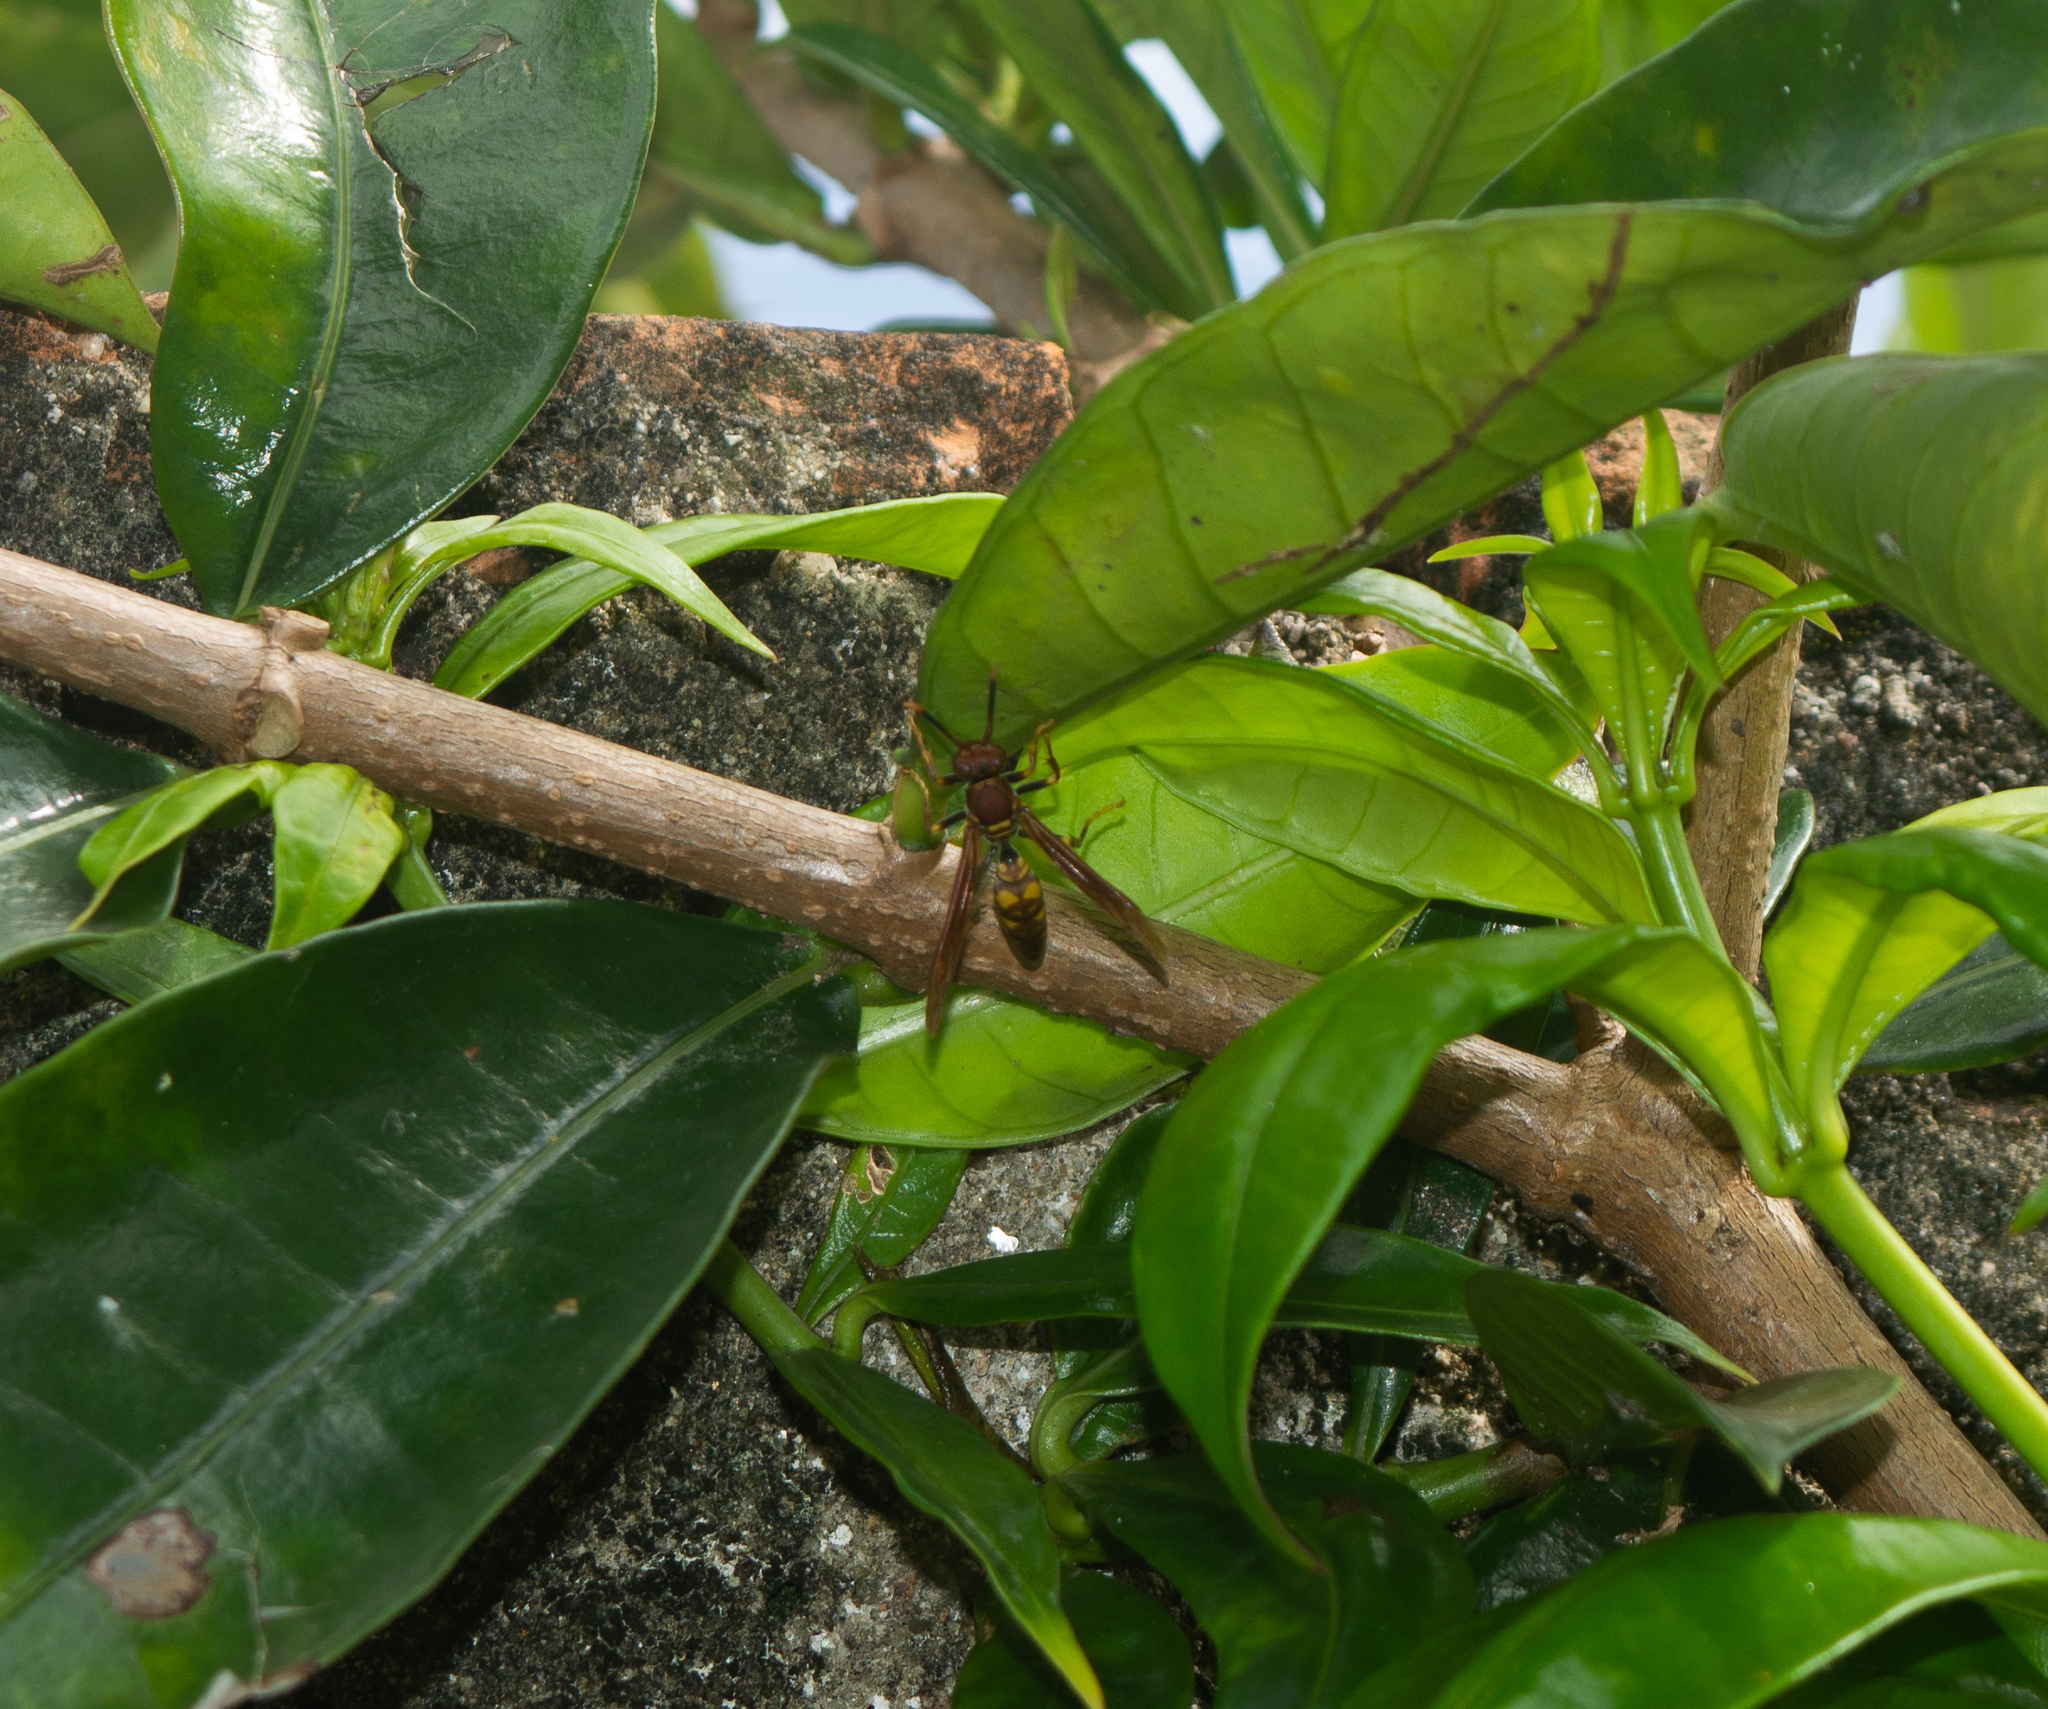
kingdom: Animalia
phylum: Arthropoda
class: Insecta
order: Hymenoptera
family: Eumenidae
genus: Polistes
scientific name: Polistes versicolor
